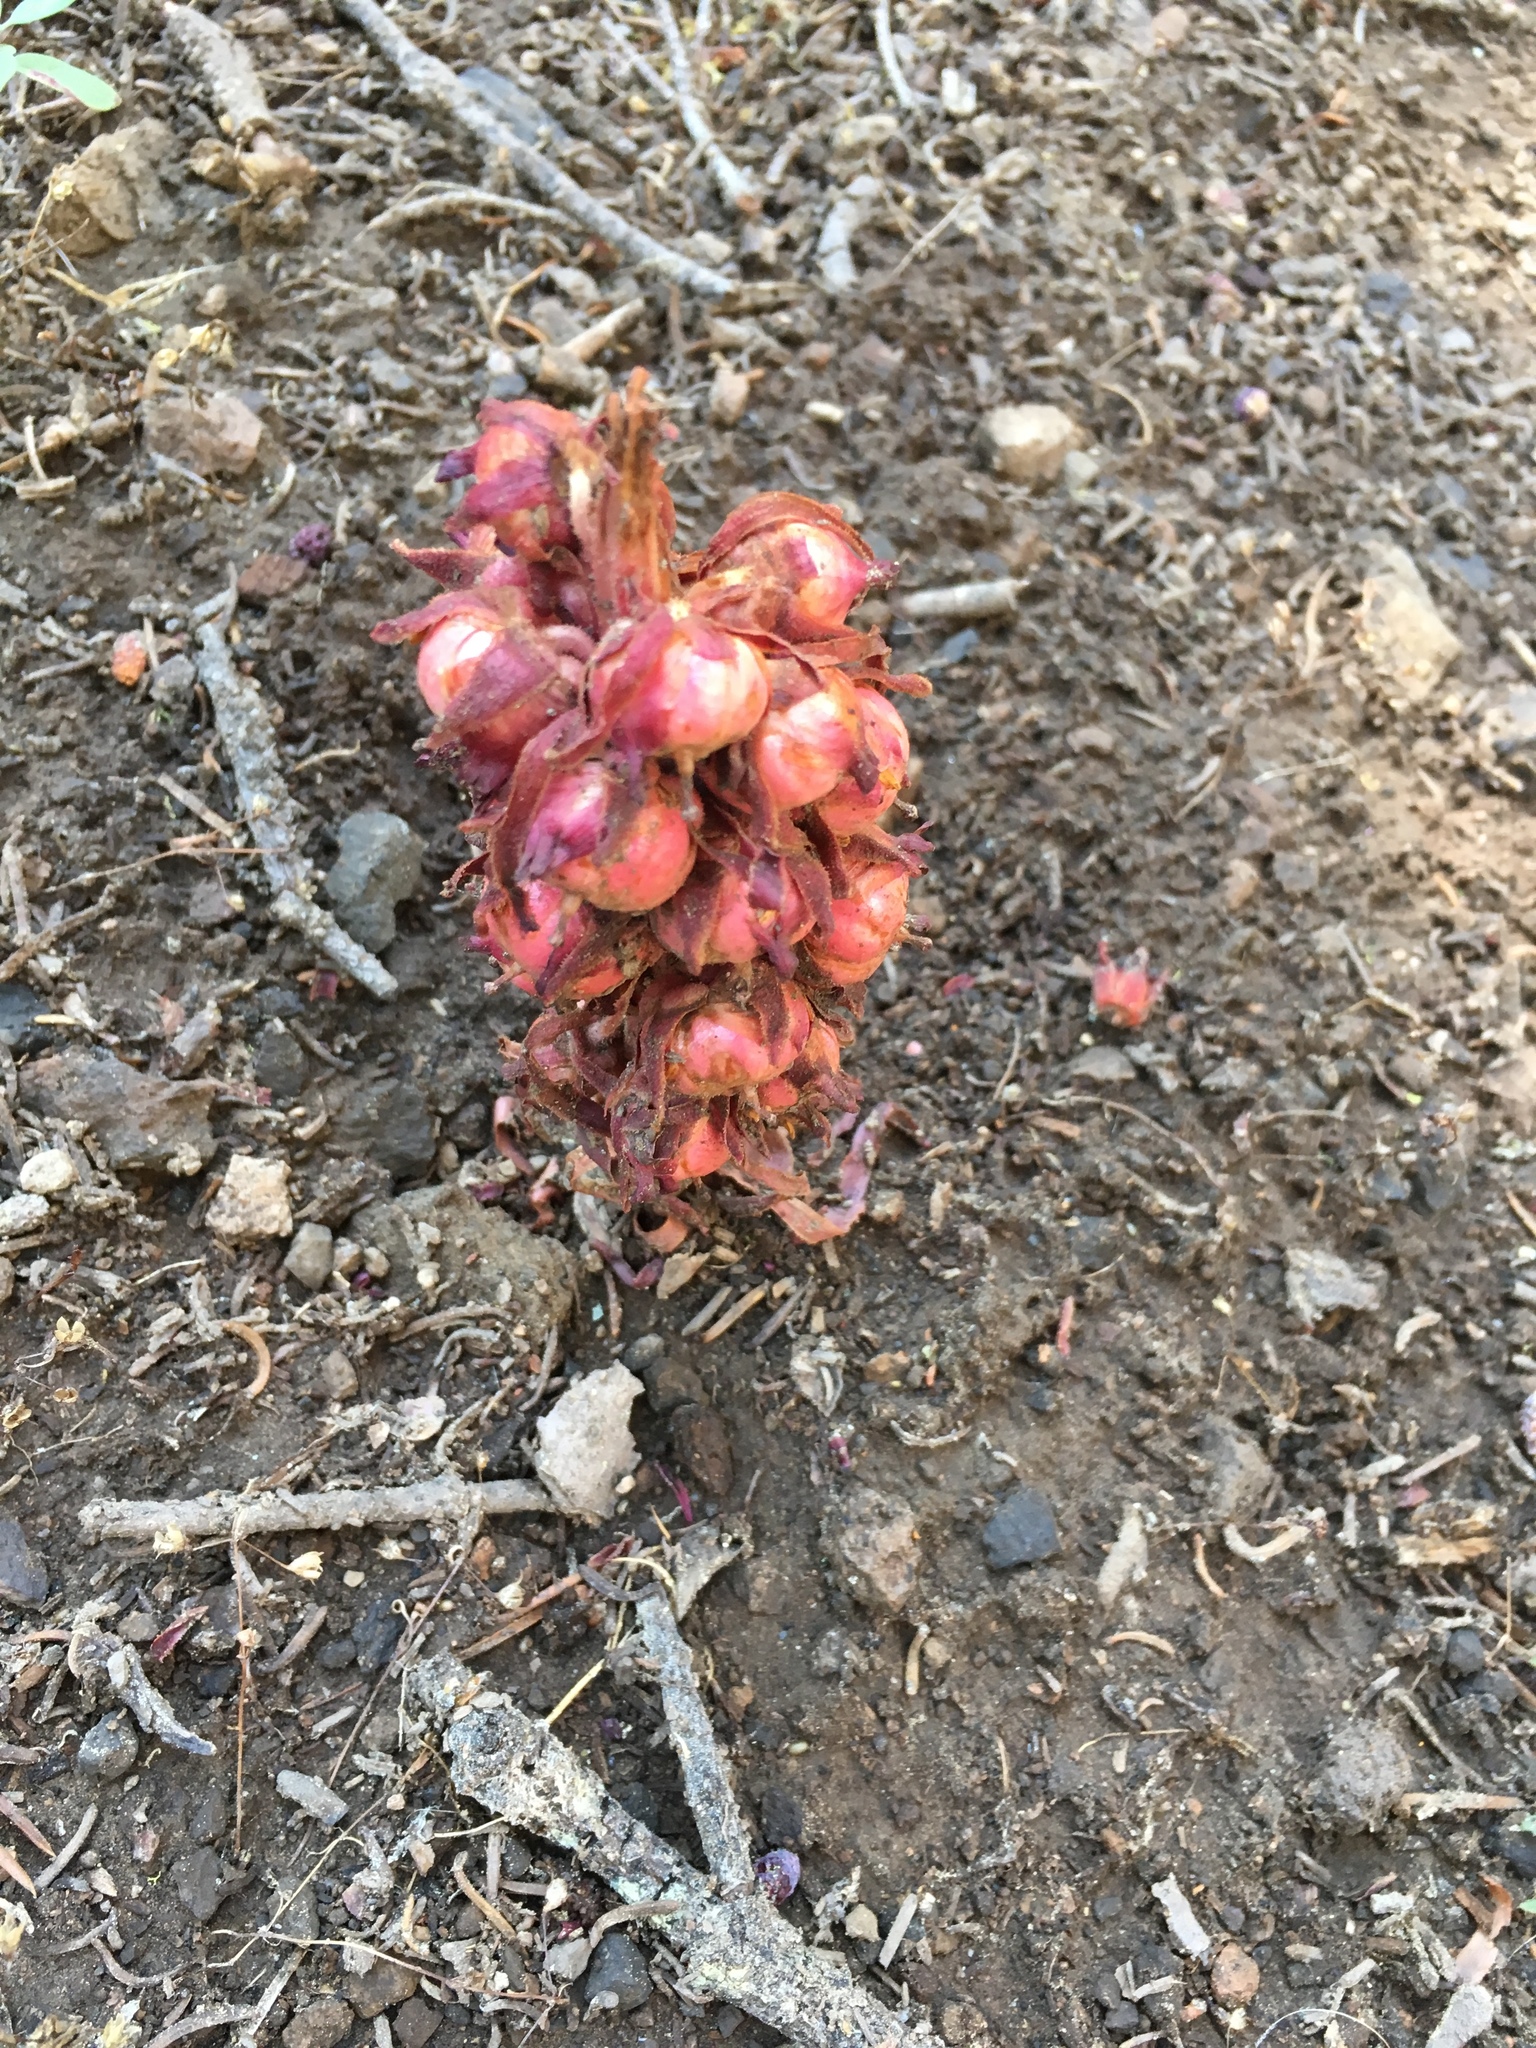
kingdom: Plantae
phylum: Tracheophyta
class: Magnoliopsida
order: Ericales
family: Ericaceae
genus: Sarcodes
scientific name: Sarcodes sanguinea
